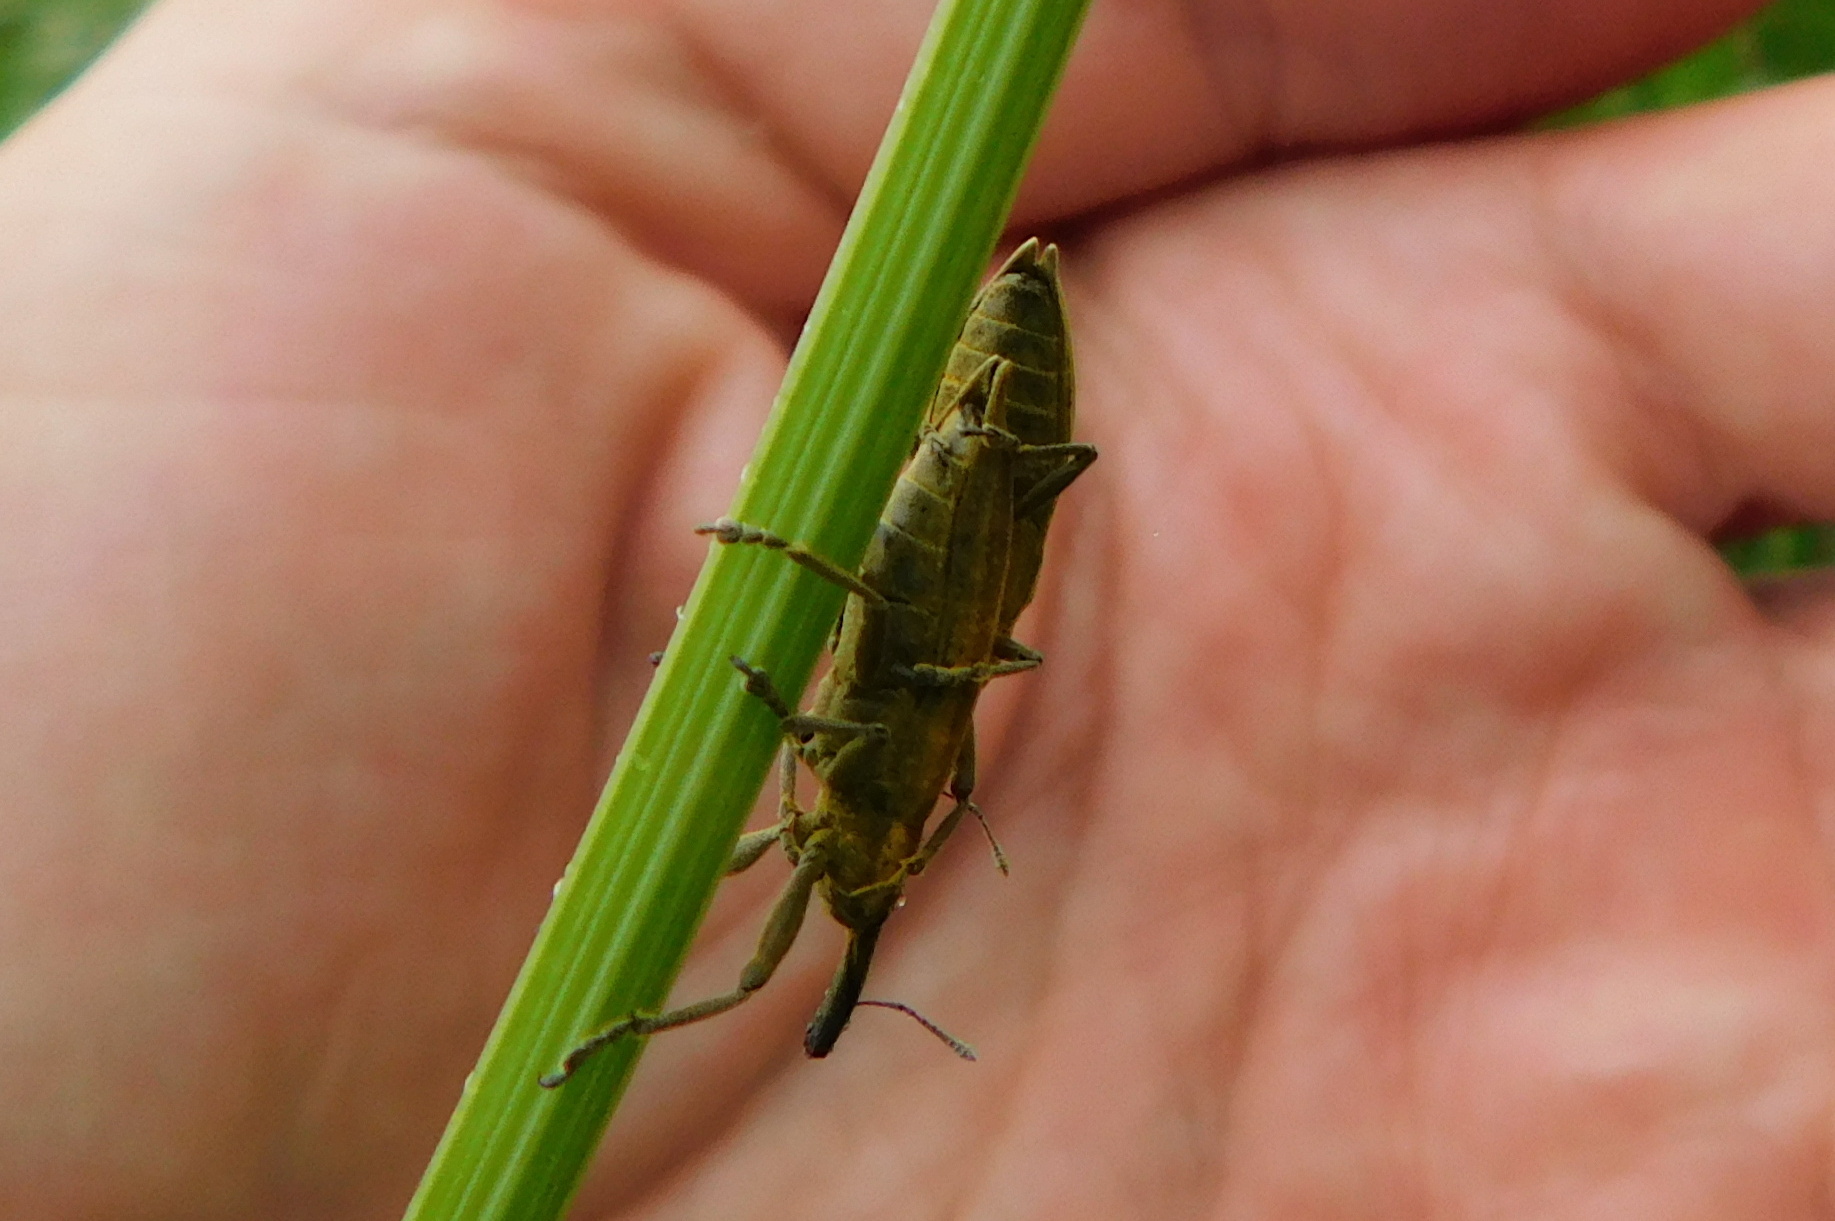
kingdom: Animalia
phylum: Arthropoda
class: Insecta
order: Coleoptera
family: Curculionidae
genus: Lixus
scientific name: Lixus iridis
